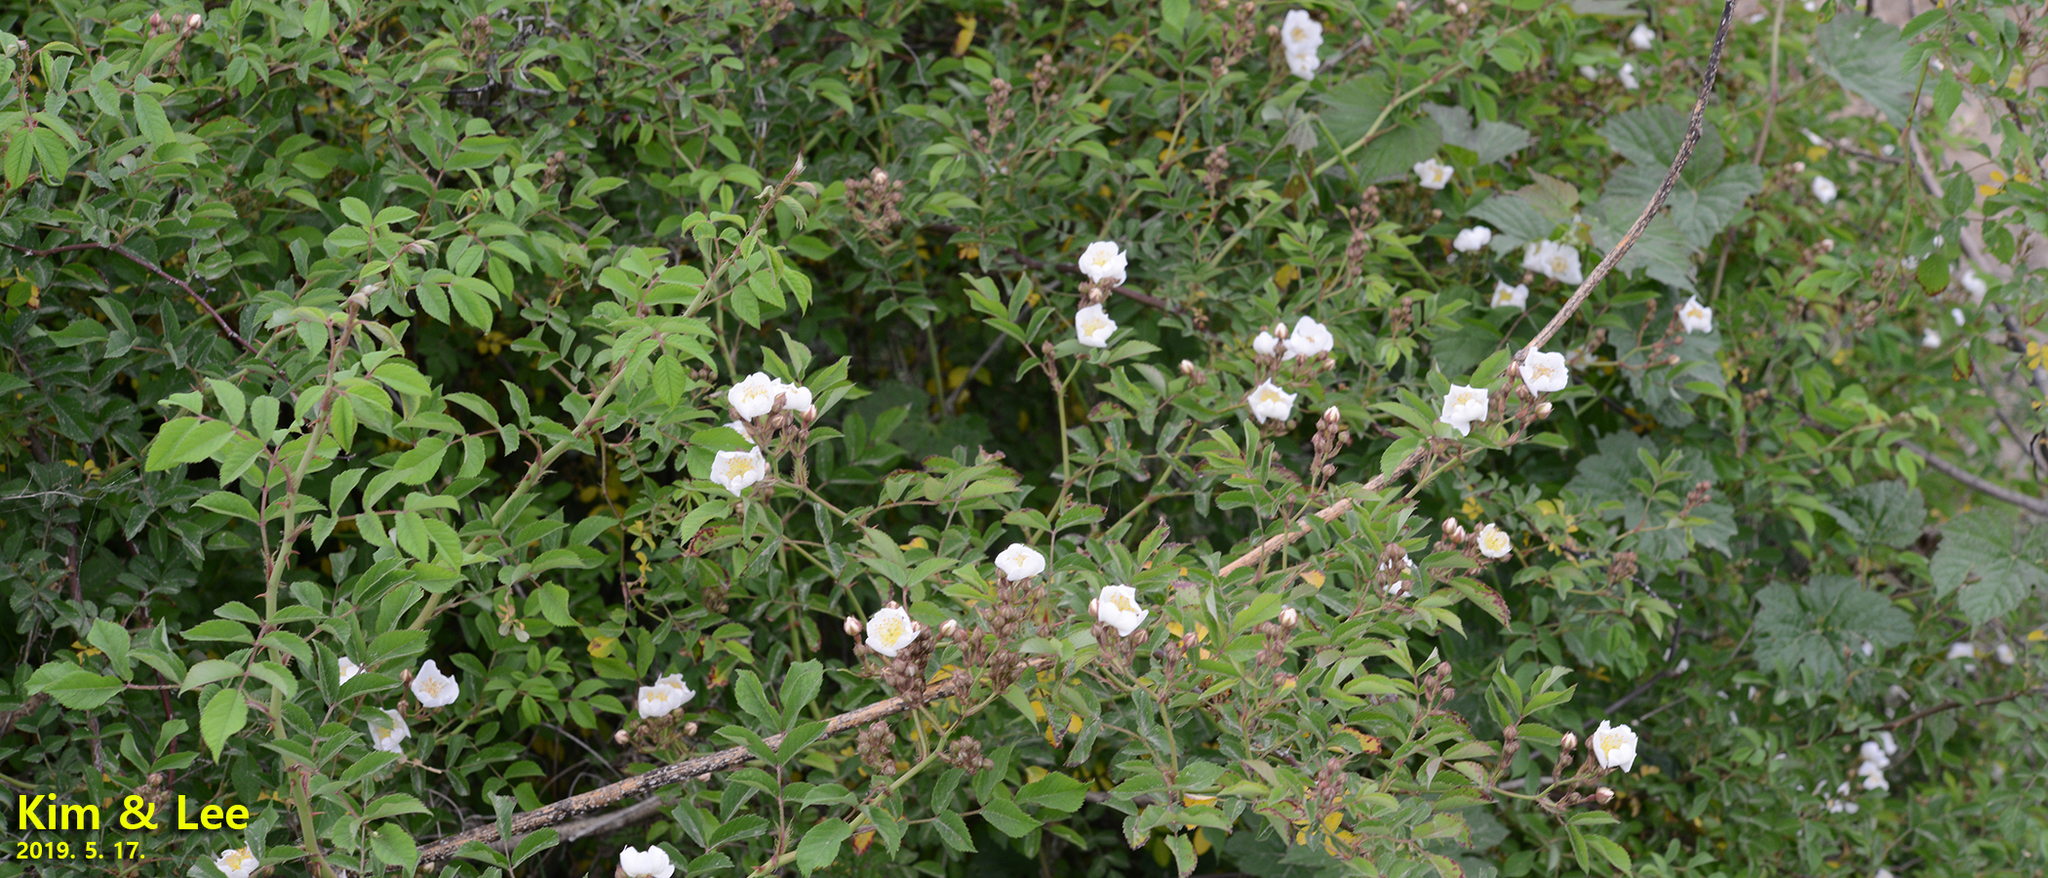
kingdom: Plantae
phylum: Tracheophyta
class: Magnoliopsida
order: Rosales
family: Rosaceae
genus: Rosa
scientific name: Rosa multiflora
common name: Multiflora rose
